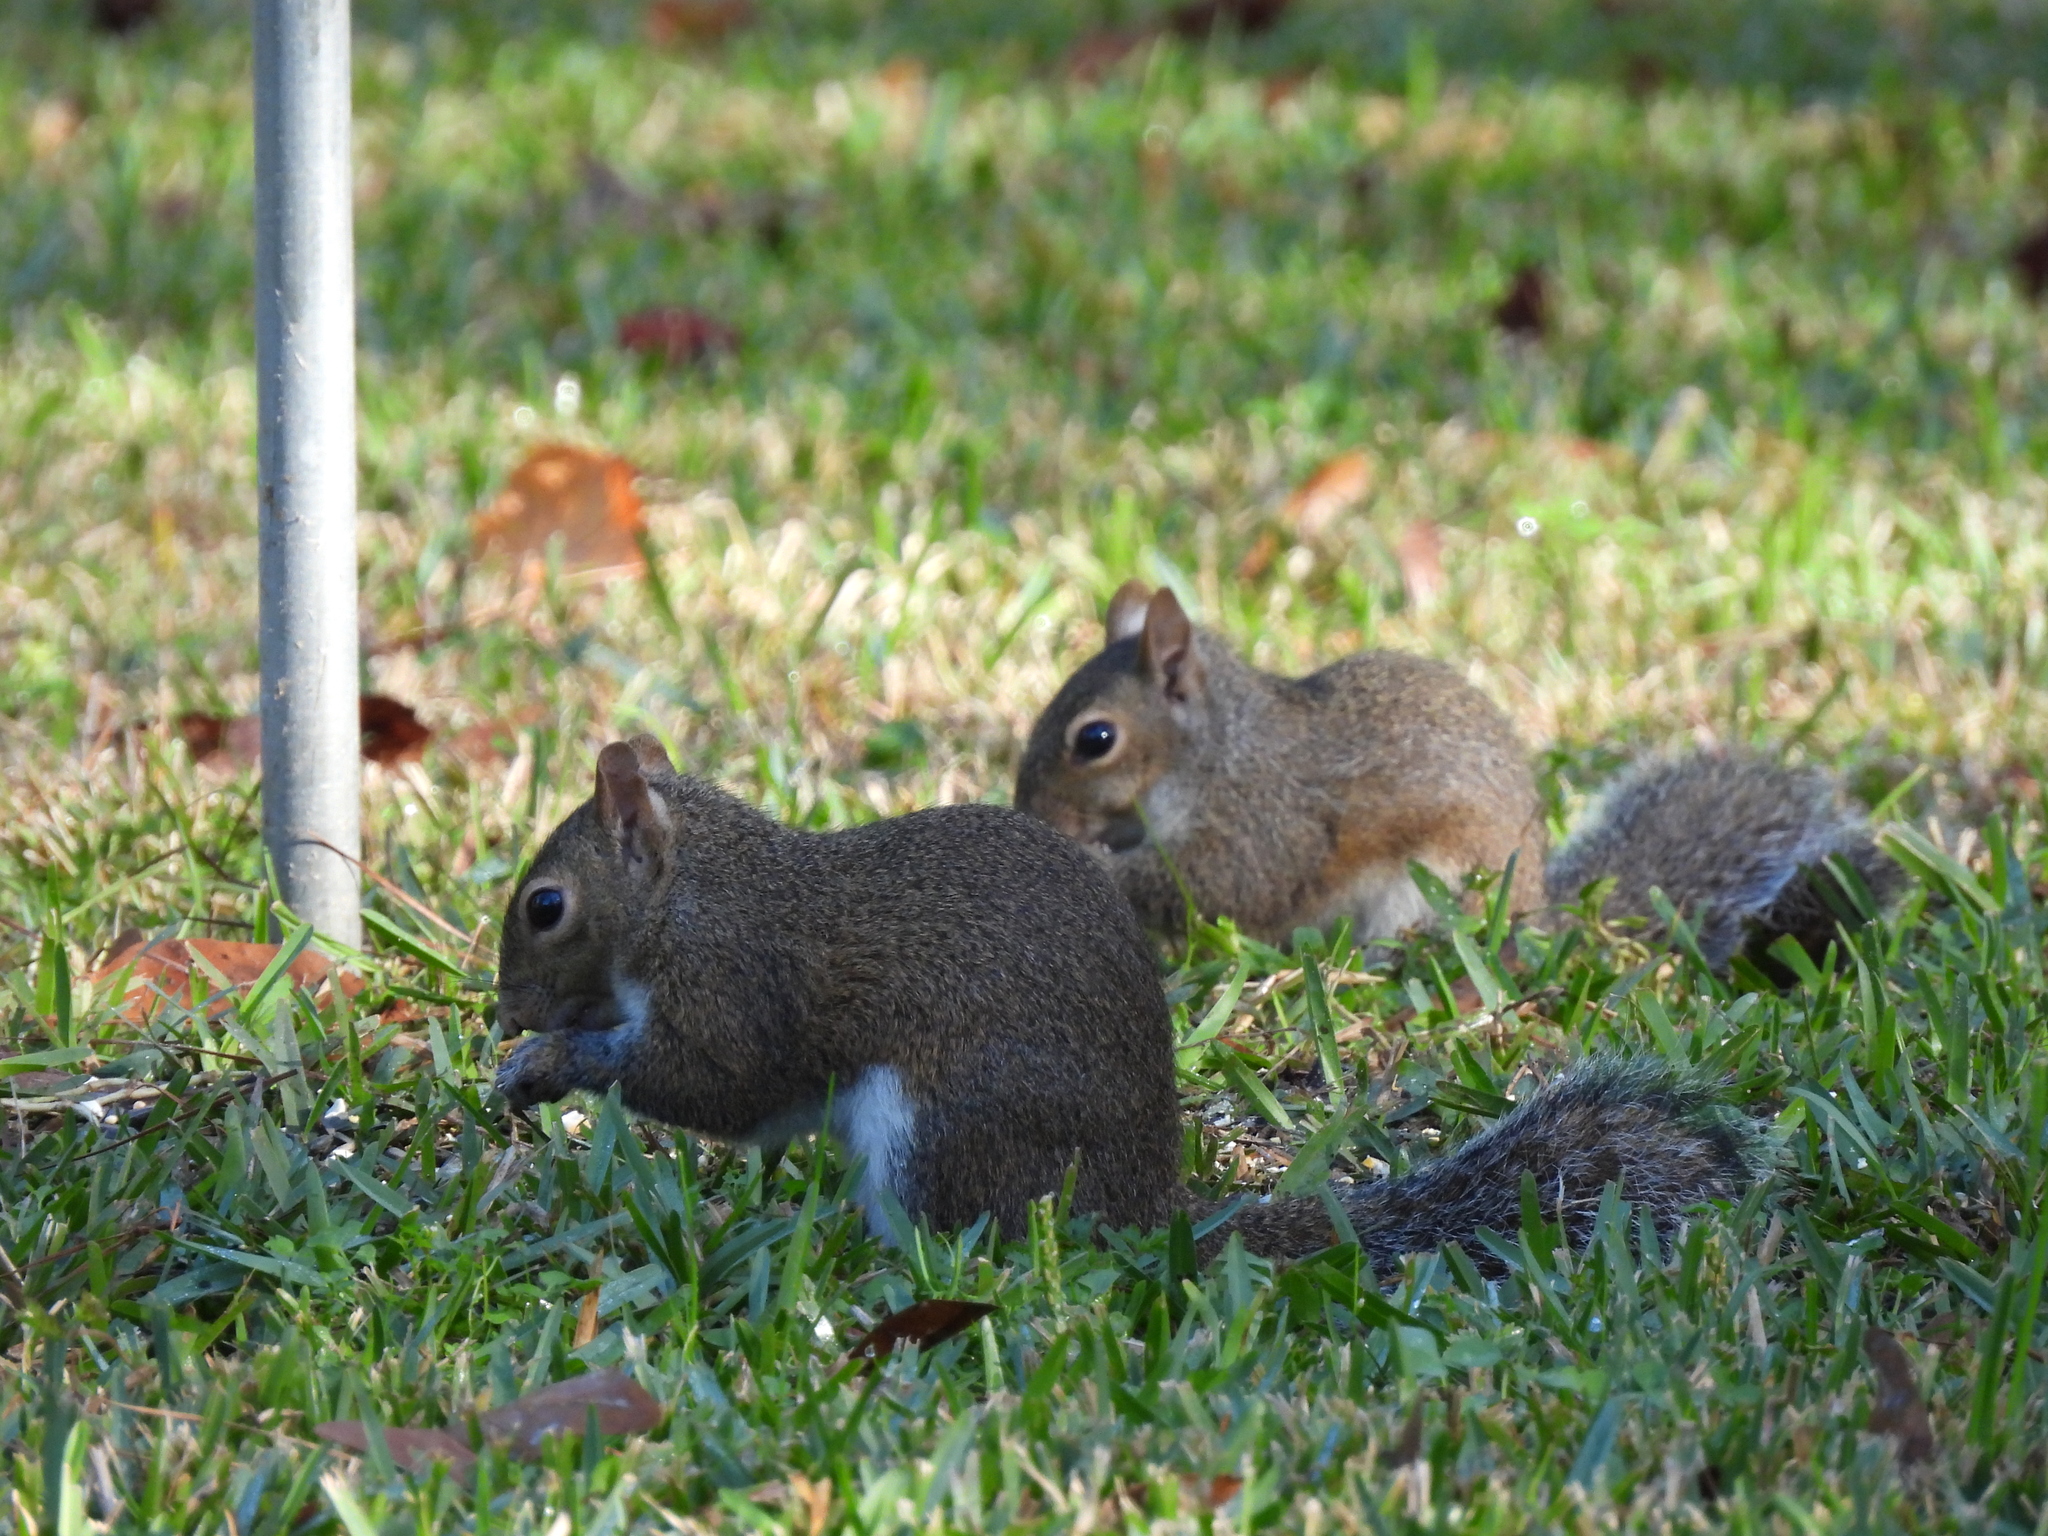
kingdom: Animalia
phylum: Chordata
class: Mammalia
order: Rodentia
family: Sciuridae
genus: Sciurus
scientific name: Sciurus carolinensis
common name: Eastern gray squirrel
